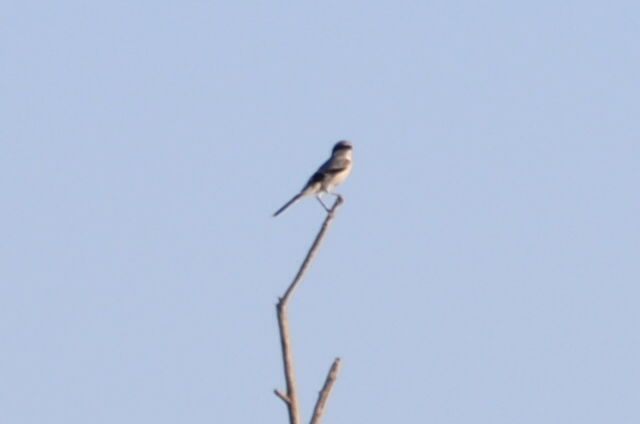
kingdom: Animalia
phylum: Chordata
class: Aves
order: Passeriformes
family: Laniidae
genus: Lanius
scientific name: Lanius ludovicianus
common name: Loggerhead shrike
